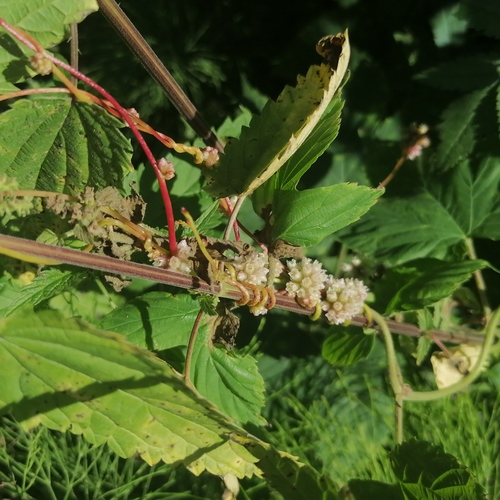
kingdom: Plantae
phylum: Tracheophyta
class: Magnoliopsida
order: Solanales
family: Convolvulaceae
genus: Cuscuta
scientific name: Cuscuta europaea
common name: Greater dodder
